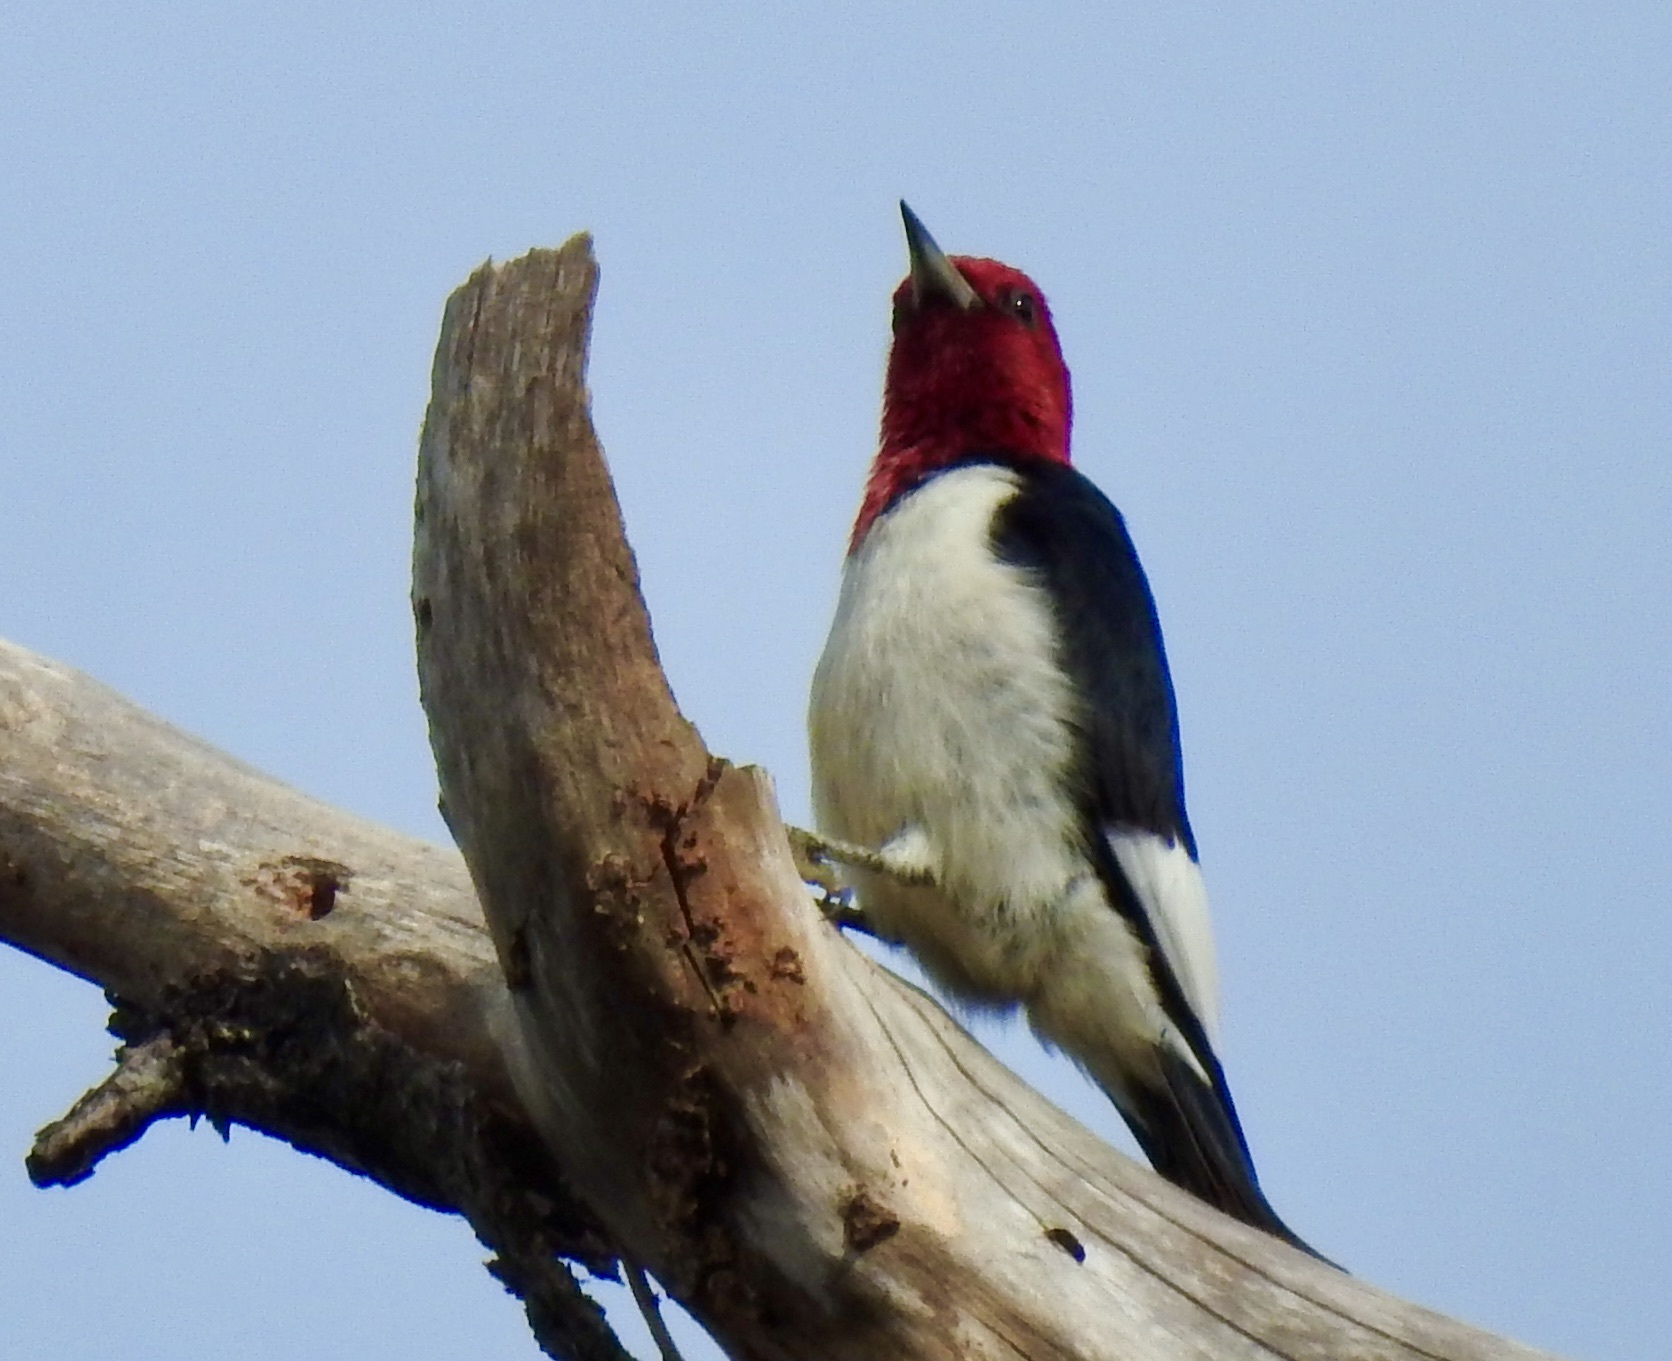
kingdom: Animalia
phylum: Chordata
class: Aves
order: Piciformes
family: Picidae
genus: Melanerpes
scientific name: Melanerpes erythrocephalus
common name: Red-headed woodpecker
